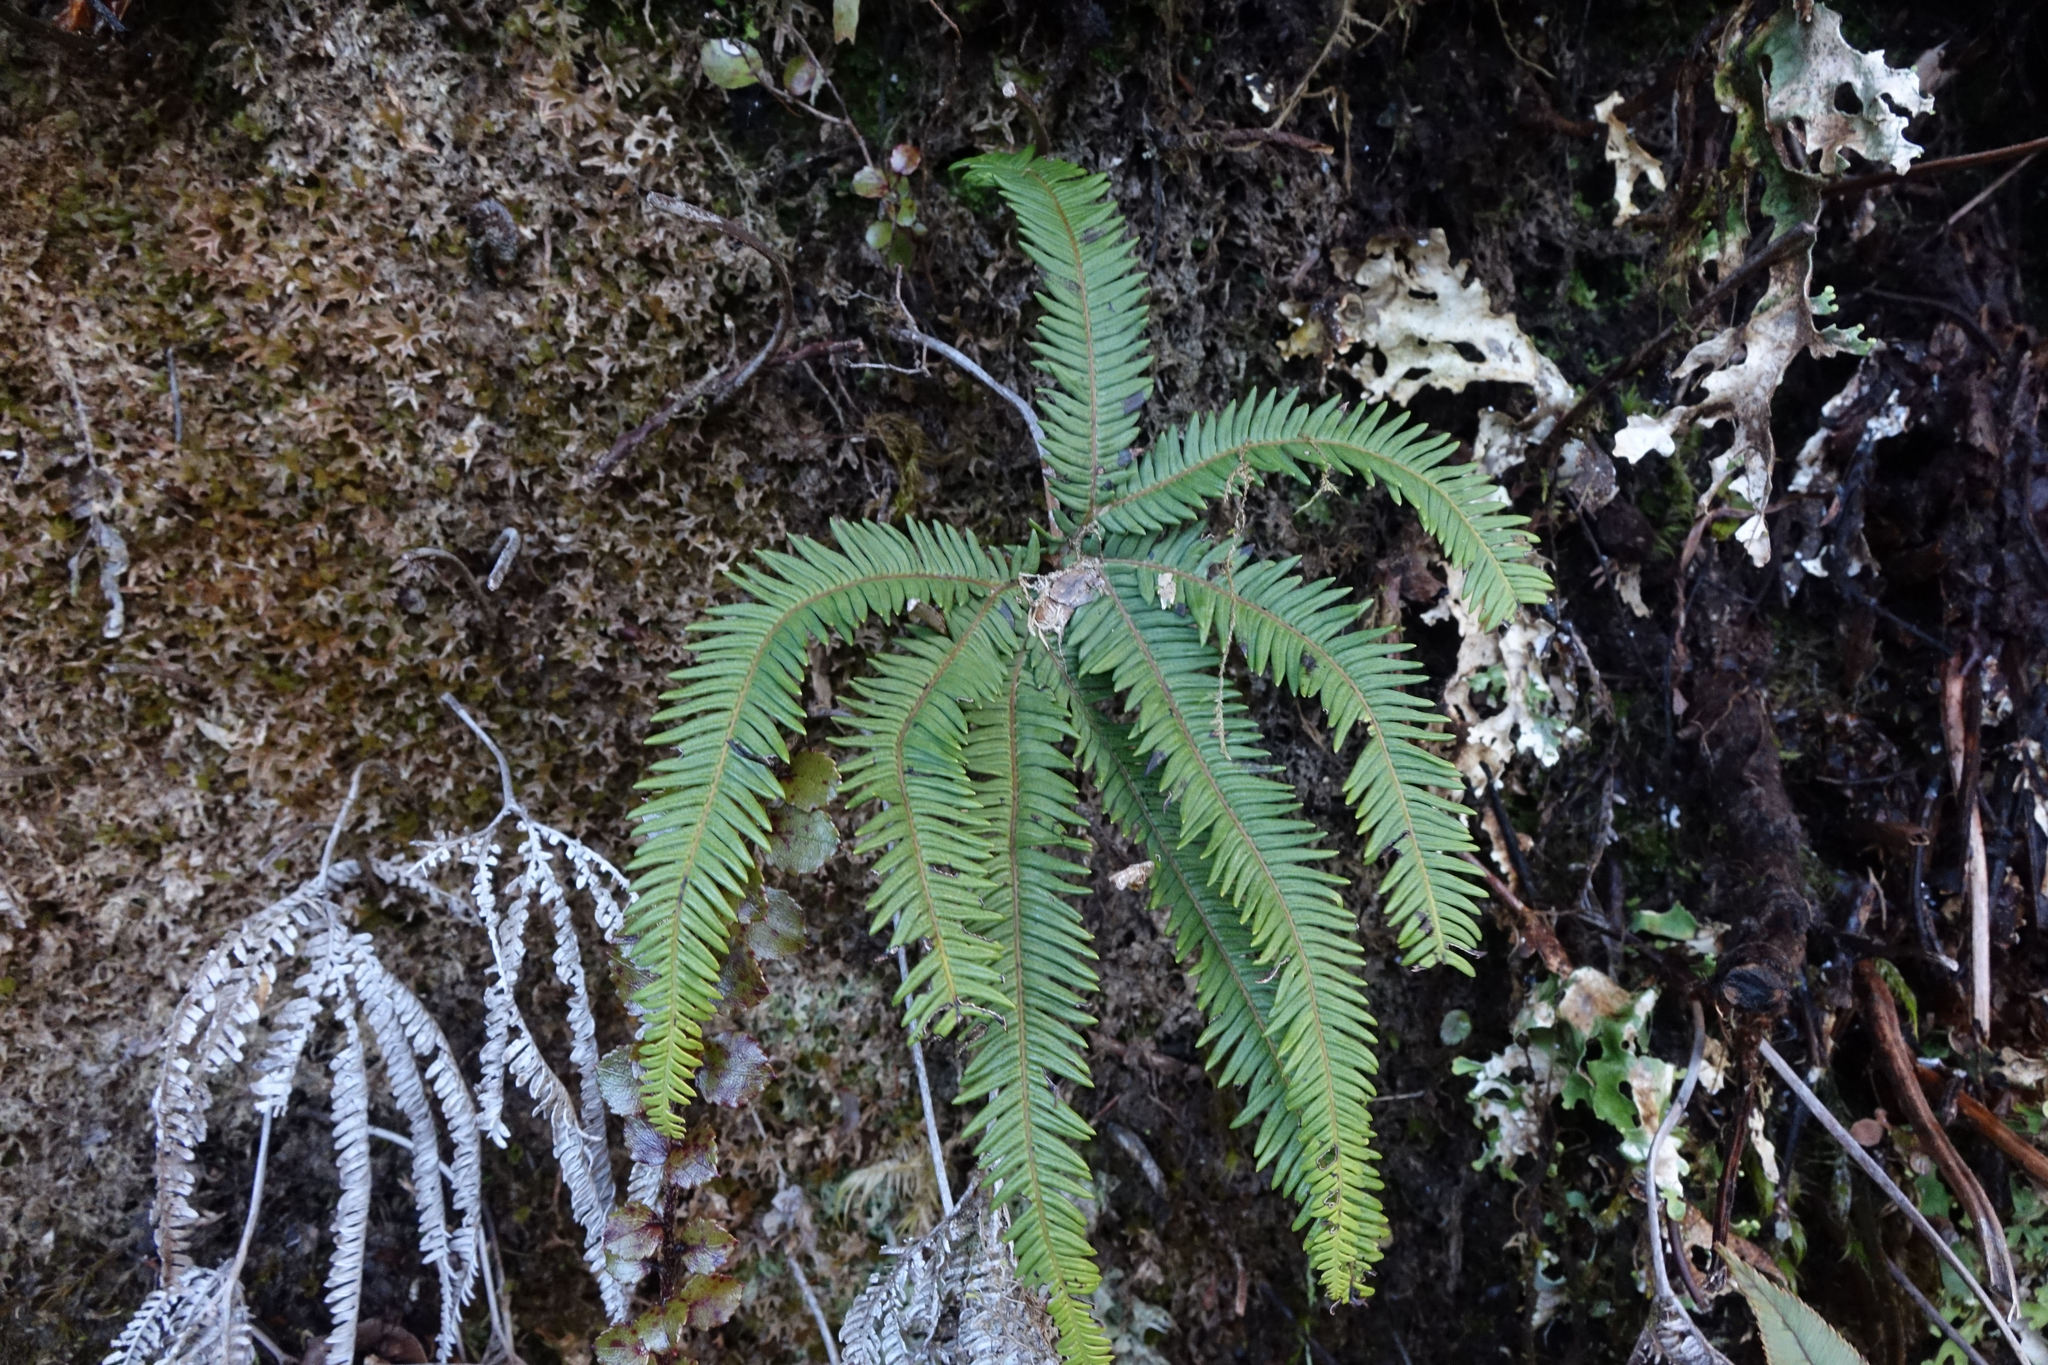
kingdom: Plantae
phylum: Tracheophyta
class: Polypodiopsida
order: Gleicheniales
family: Gleicheniaceae
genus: Sticherus
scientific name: Sticherus cunninghamii
